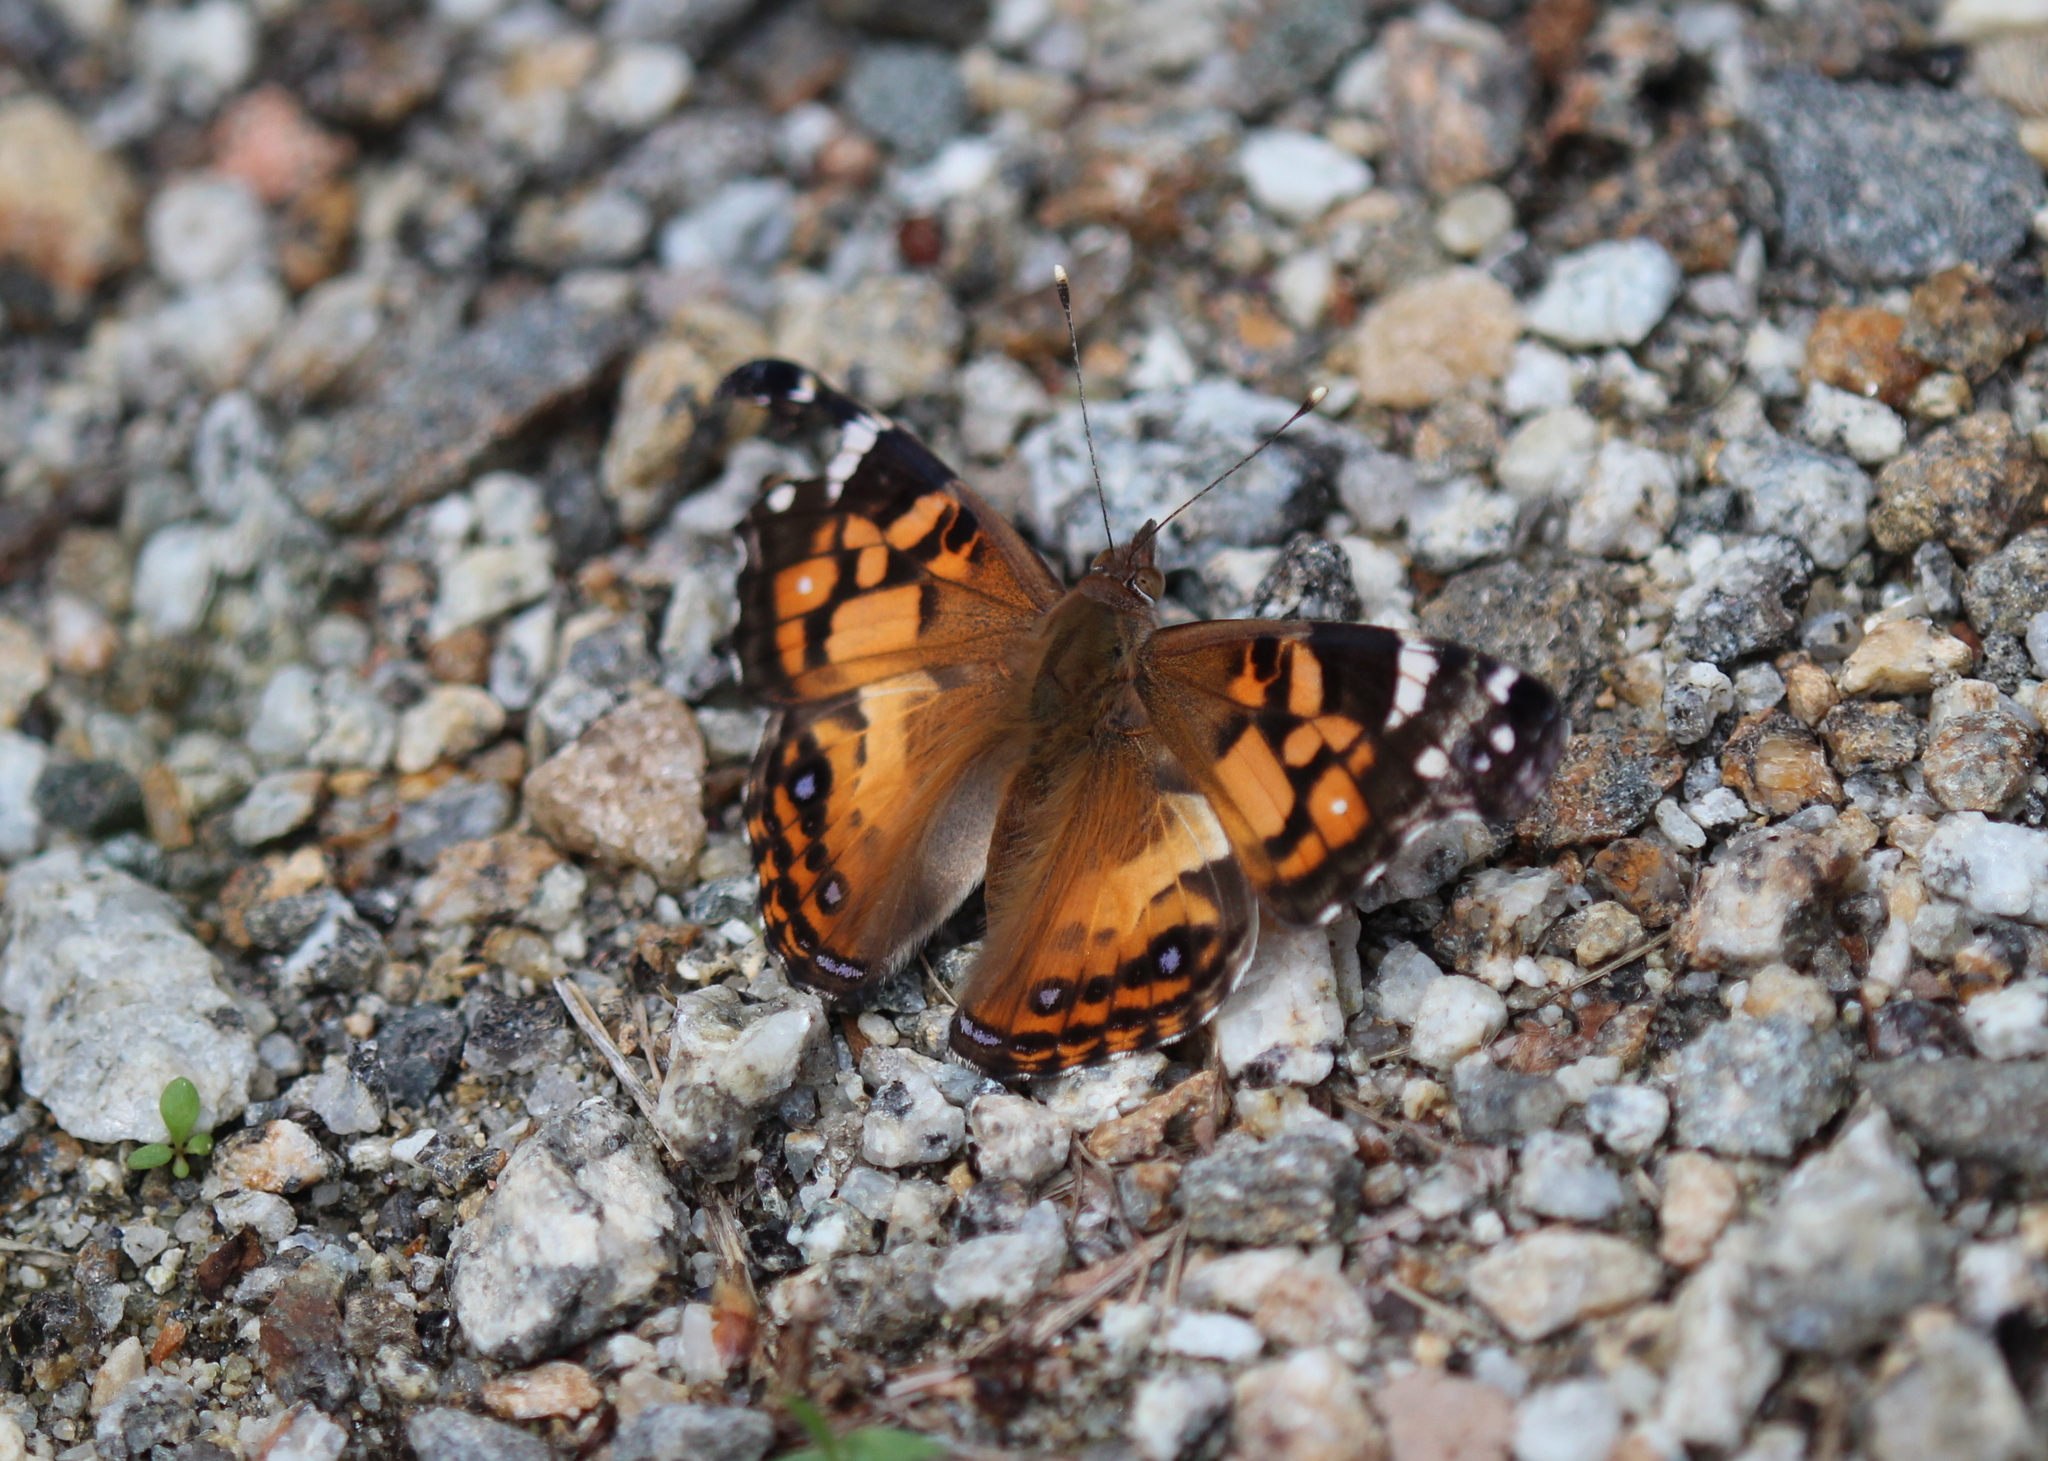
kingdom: Animalia
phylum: Arthropoda
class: Insecta
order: Lepidoptera
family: Nymphalidae
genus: Vanessa
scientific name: Vanessa virginiensis
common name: American lady
